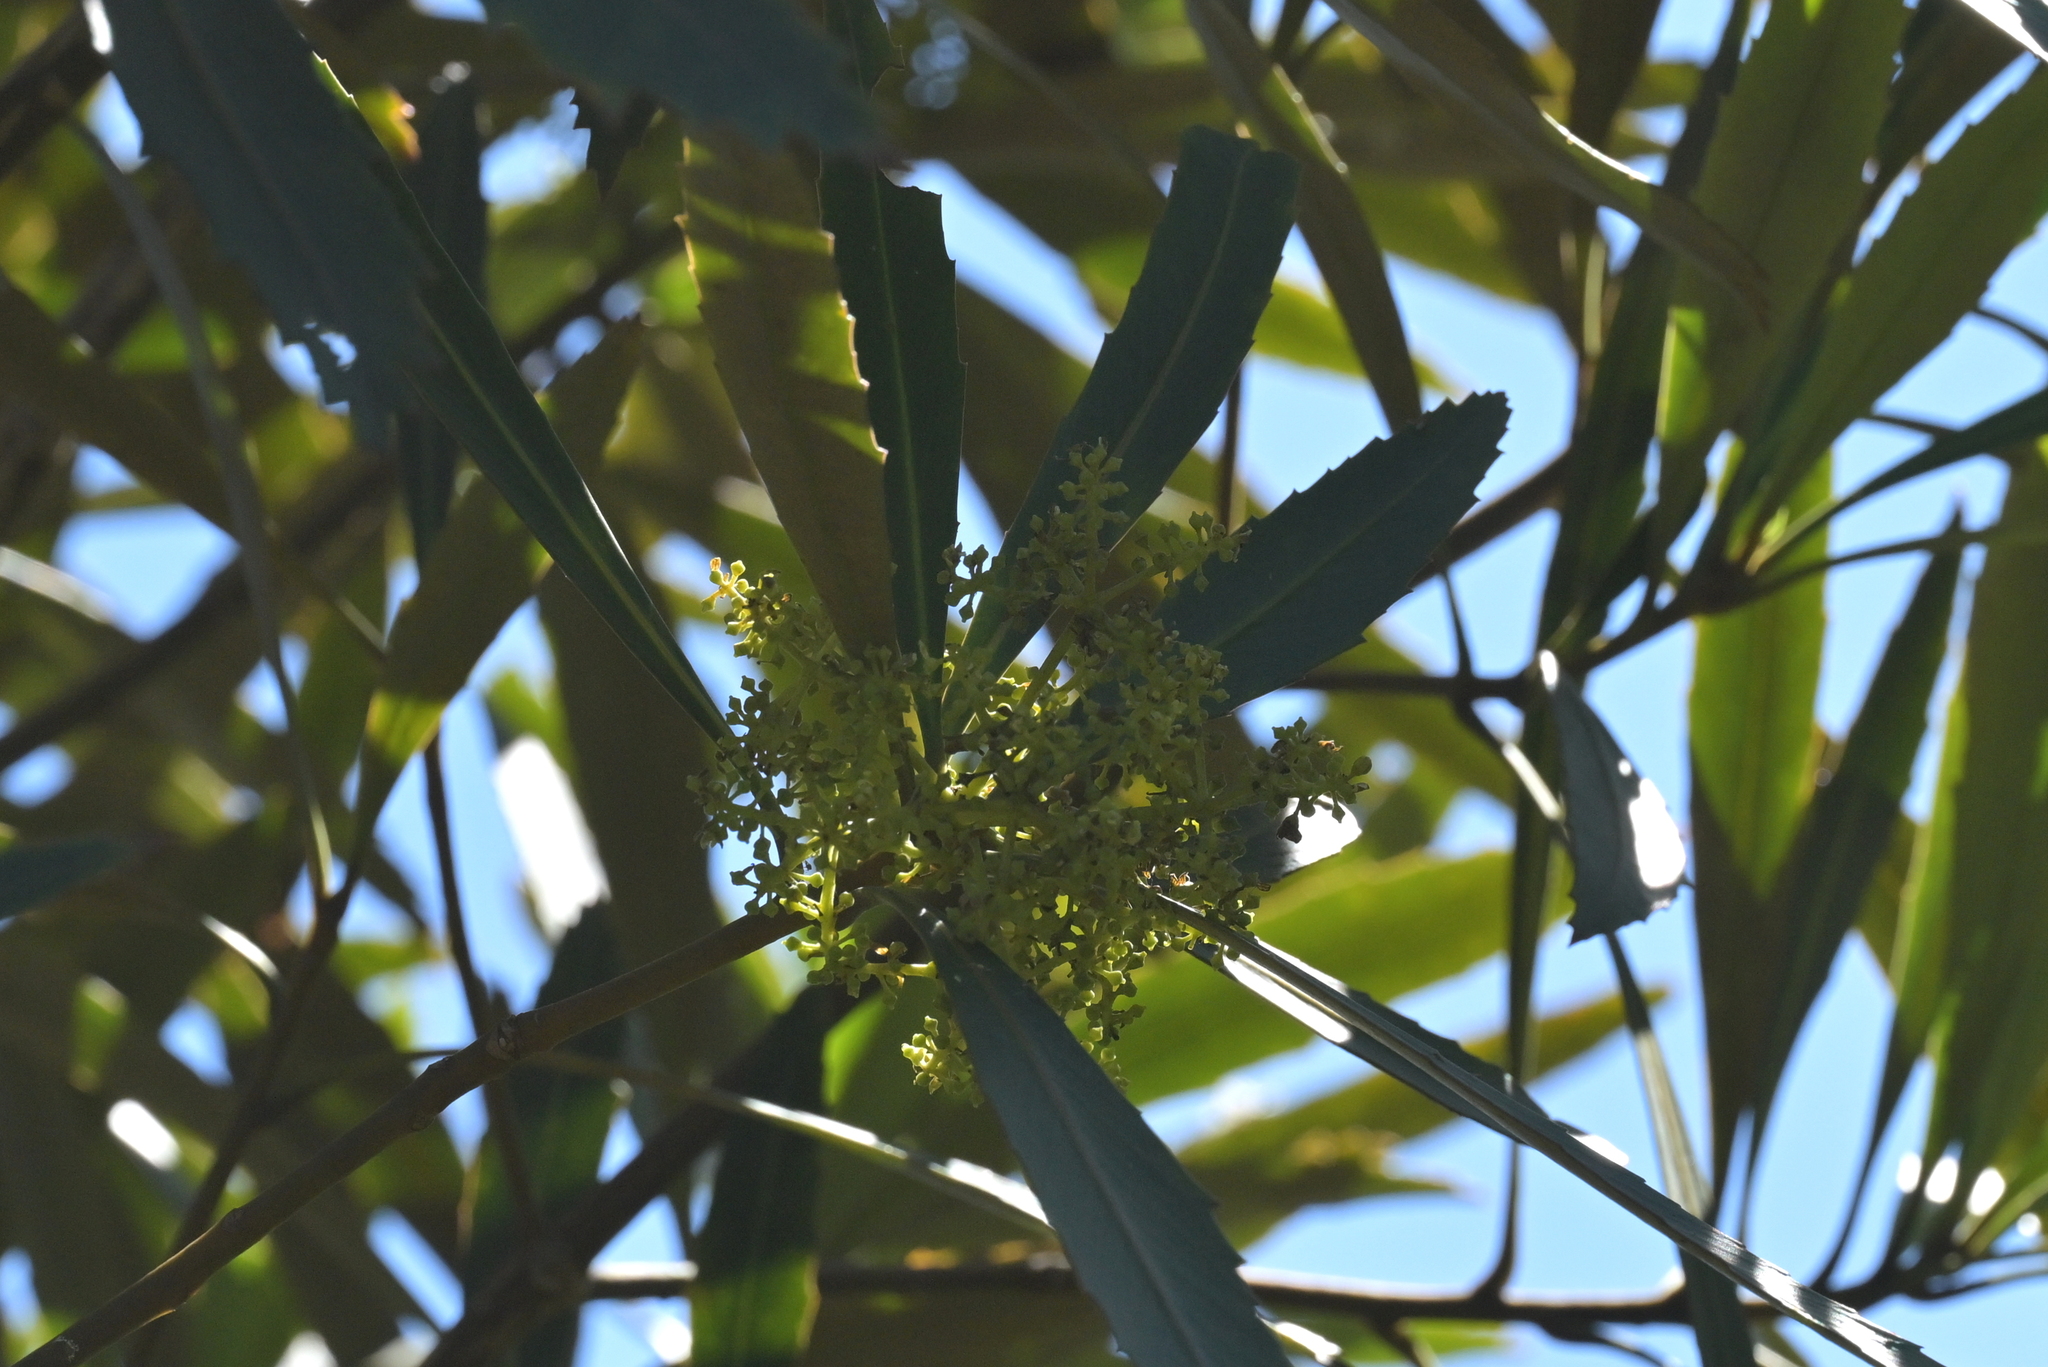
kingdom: Plantae
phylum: Tracheophyta
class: Magnoliopsida
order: Apiales
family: Araliaceae
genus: Pseudopanax
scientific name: Pseudopanax crassifolius
